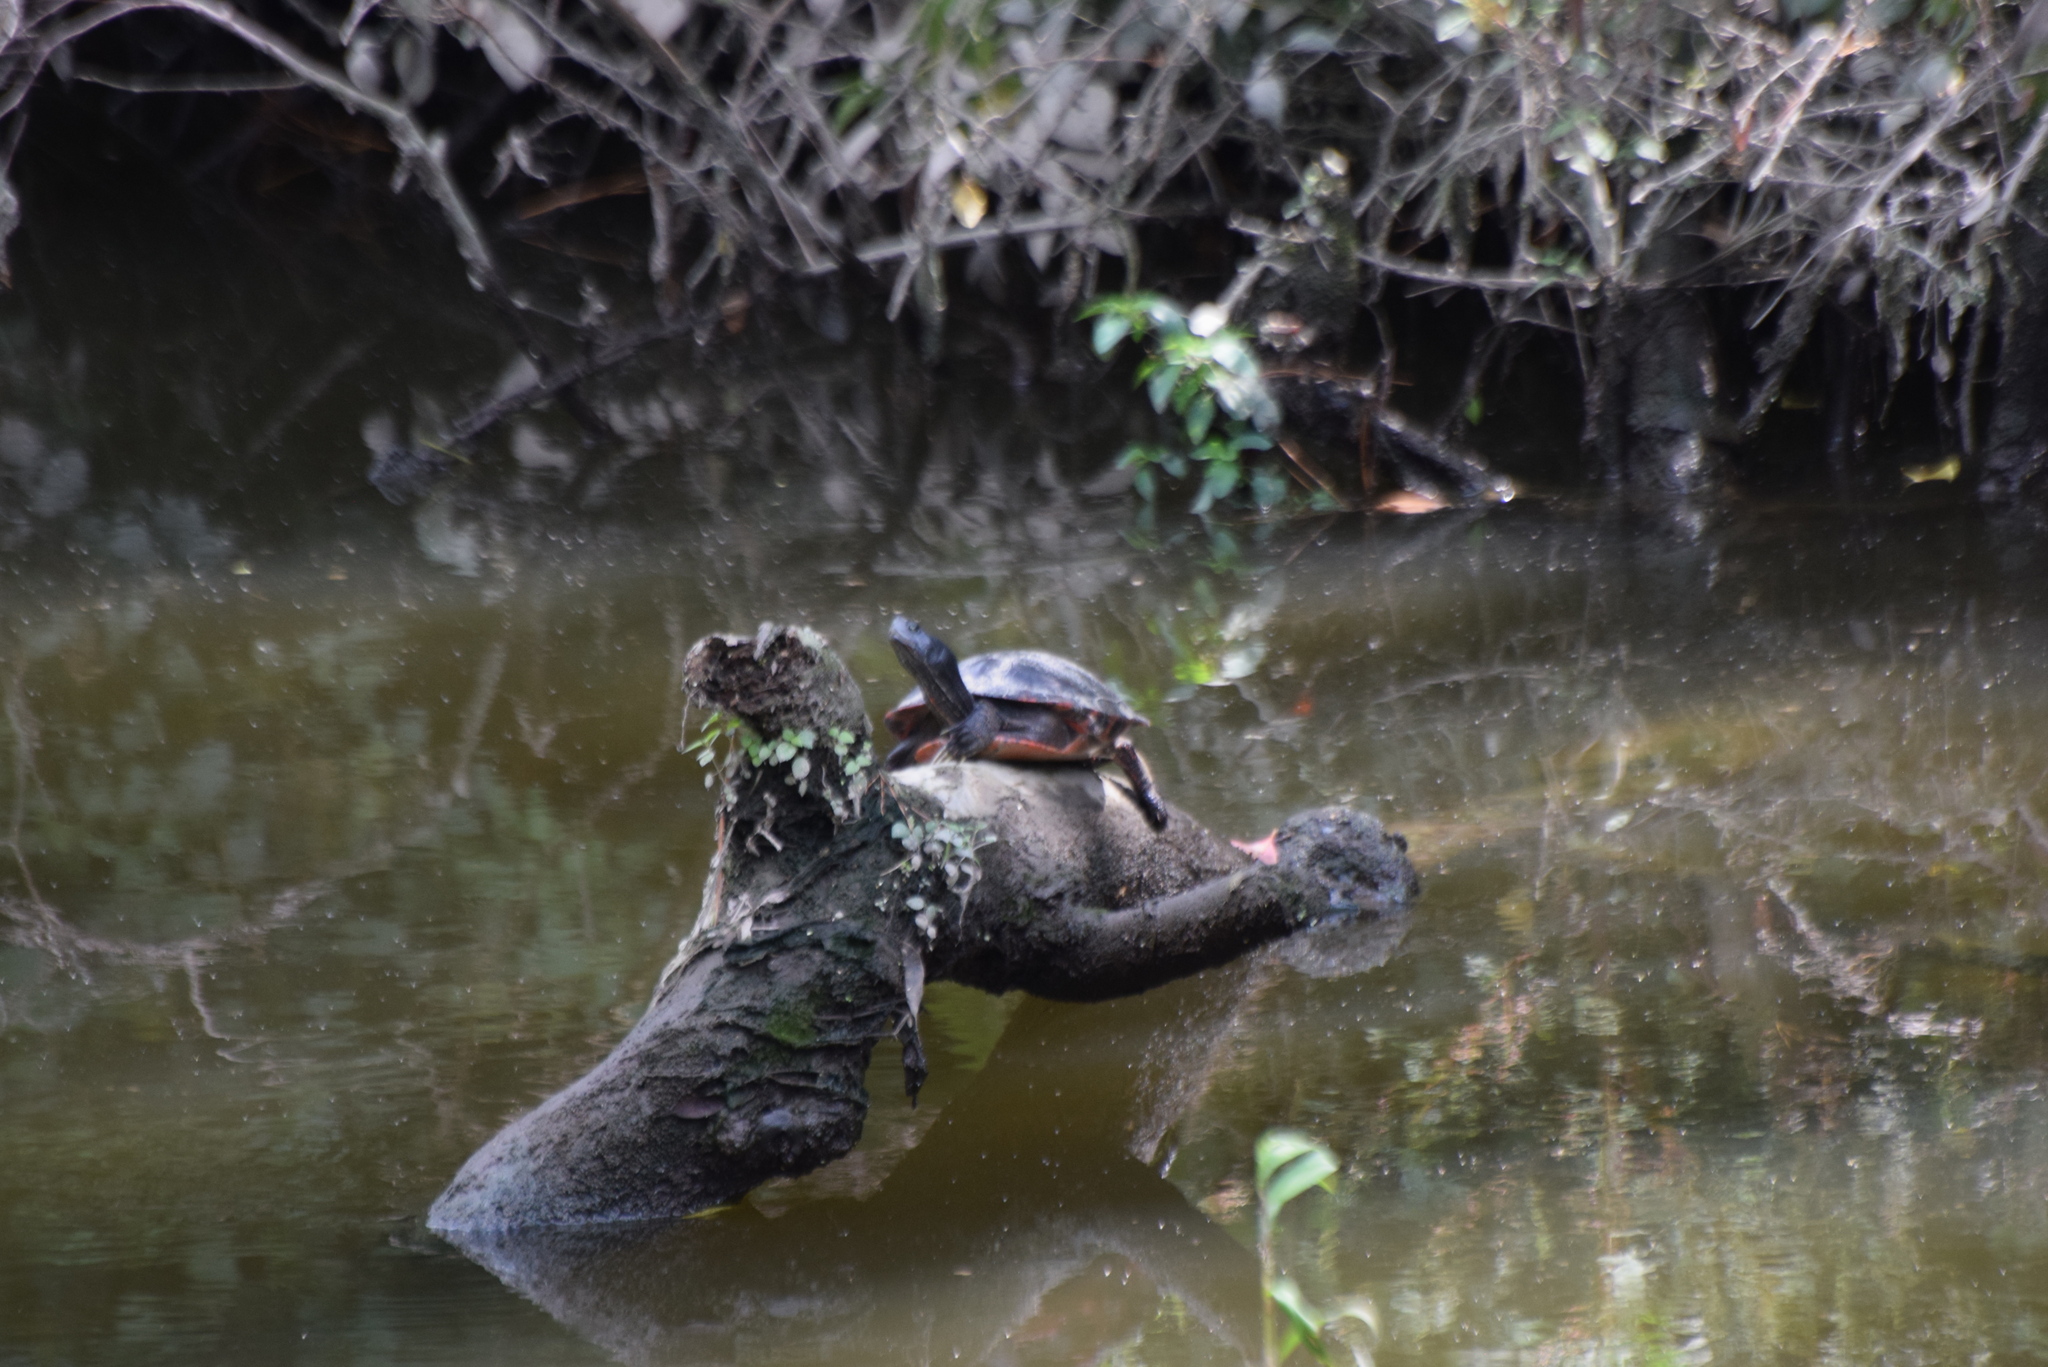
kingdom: Animalia
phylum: Chordata
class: Testudines
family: Emydidae
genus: Pseudemys
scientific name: Pseudemys rubriventris
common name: American red-bellied turtle
